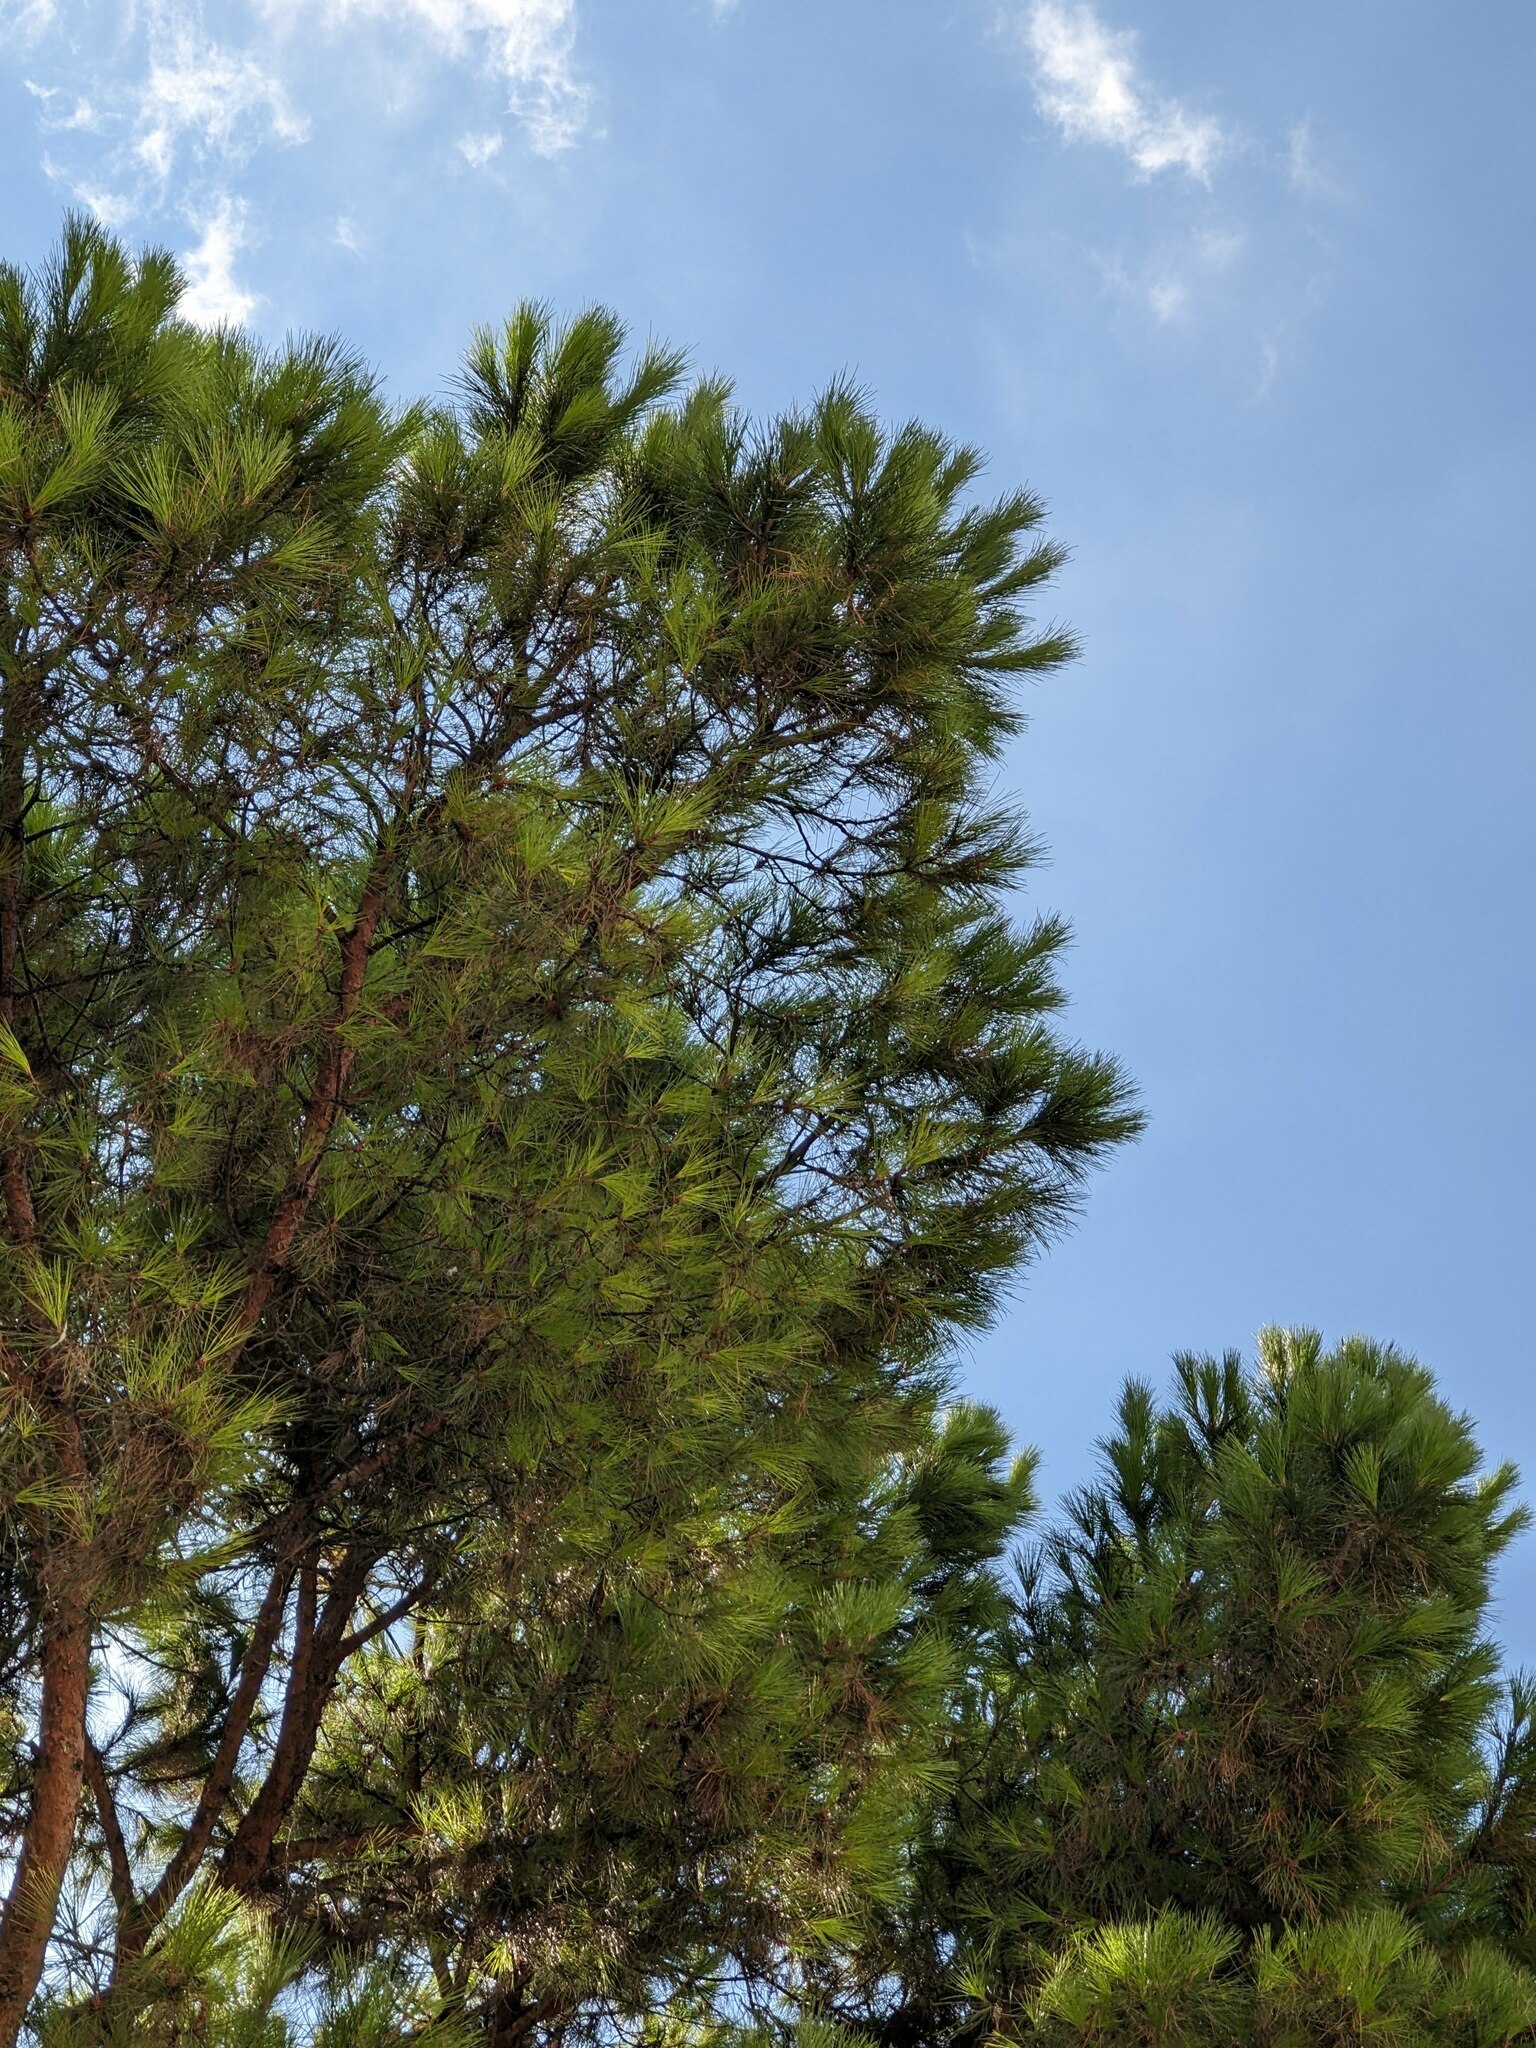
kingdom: Plantae
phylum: Tracheophyta
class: Pinopsida
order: Pinales
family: Pinaceae
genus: Pinus
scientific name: Pinus pinea
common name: Italian stone pine
